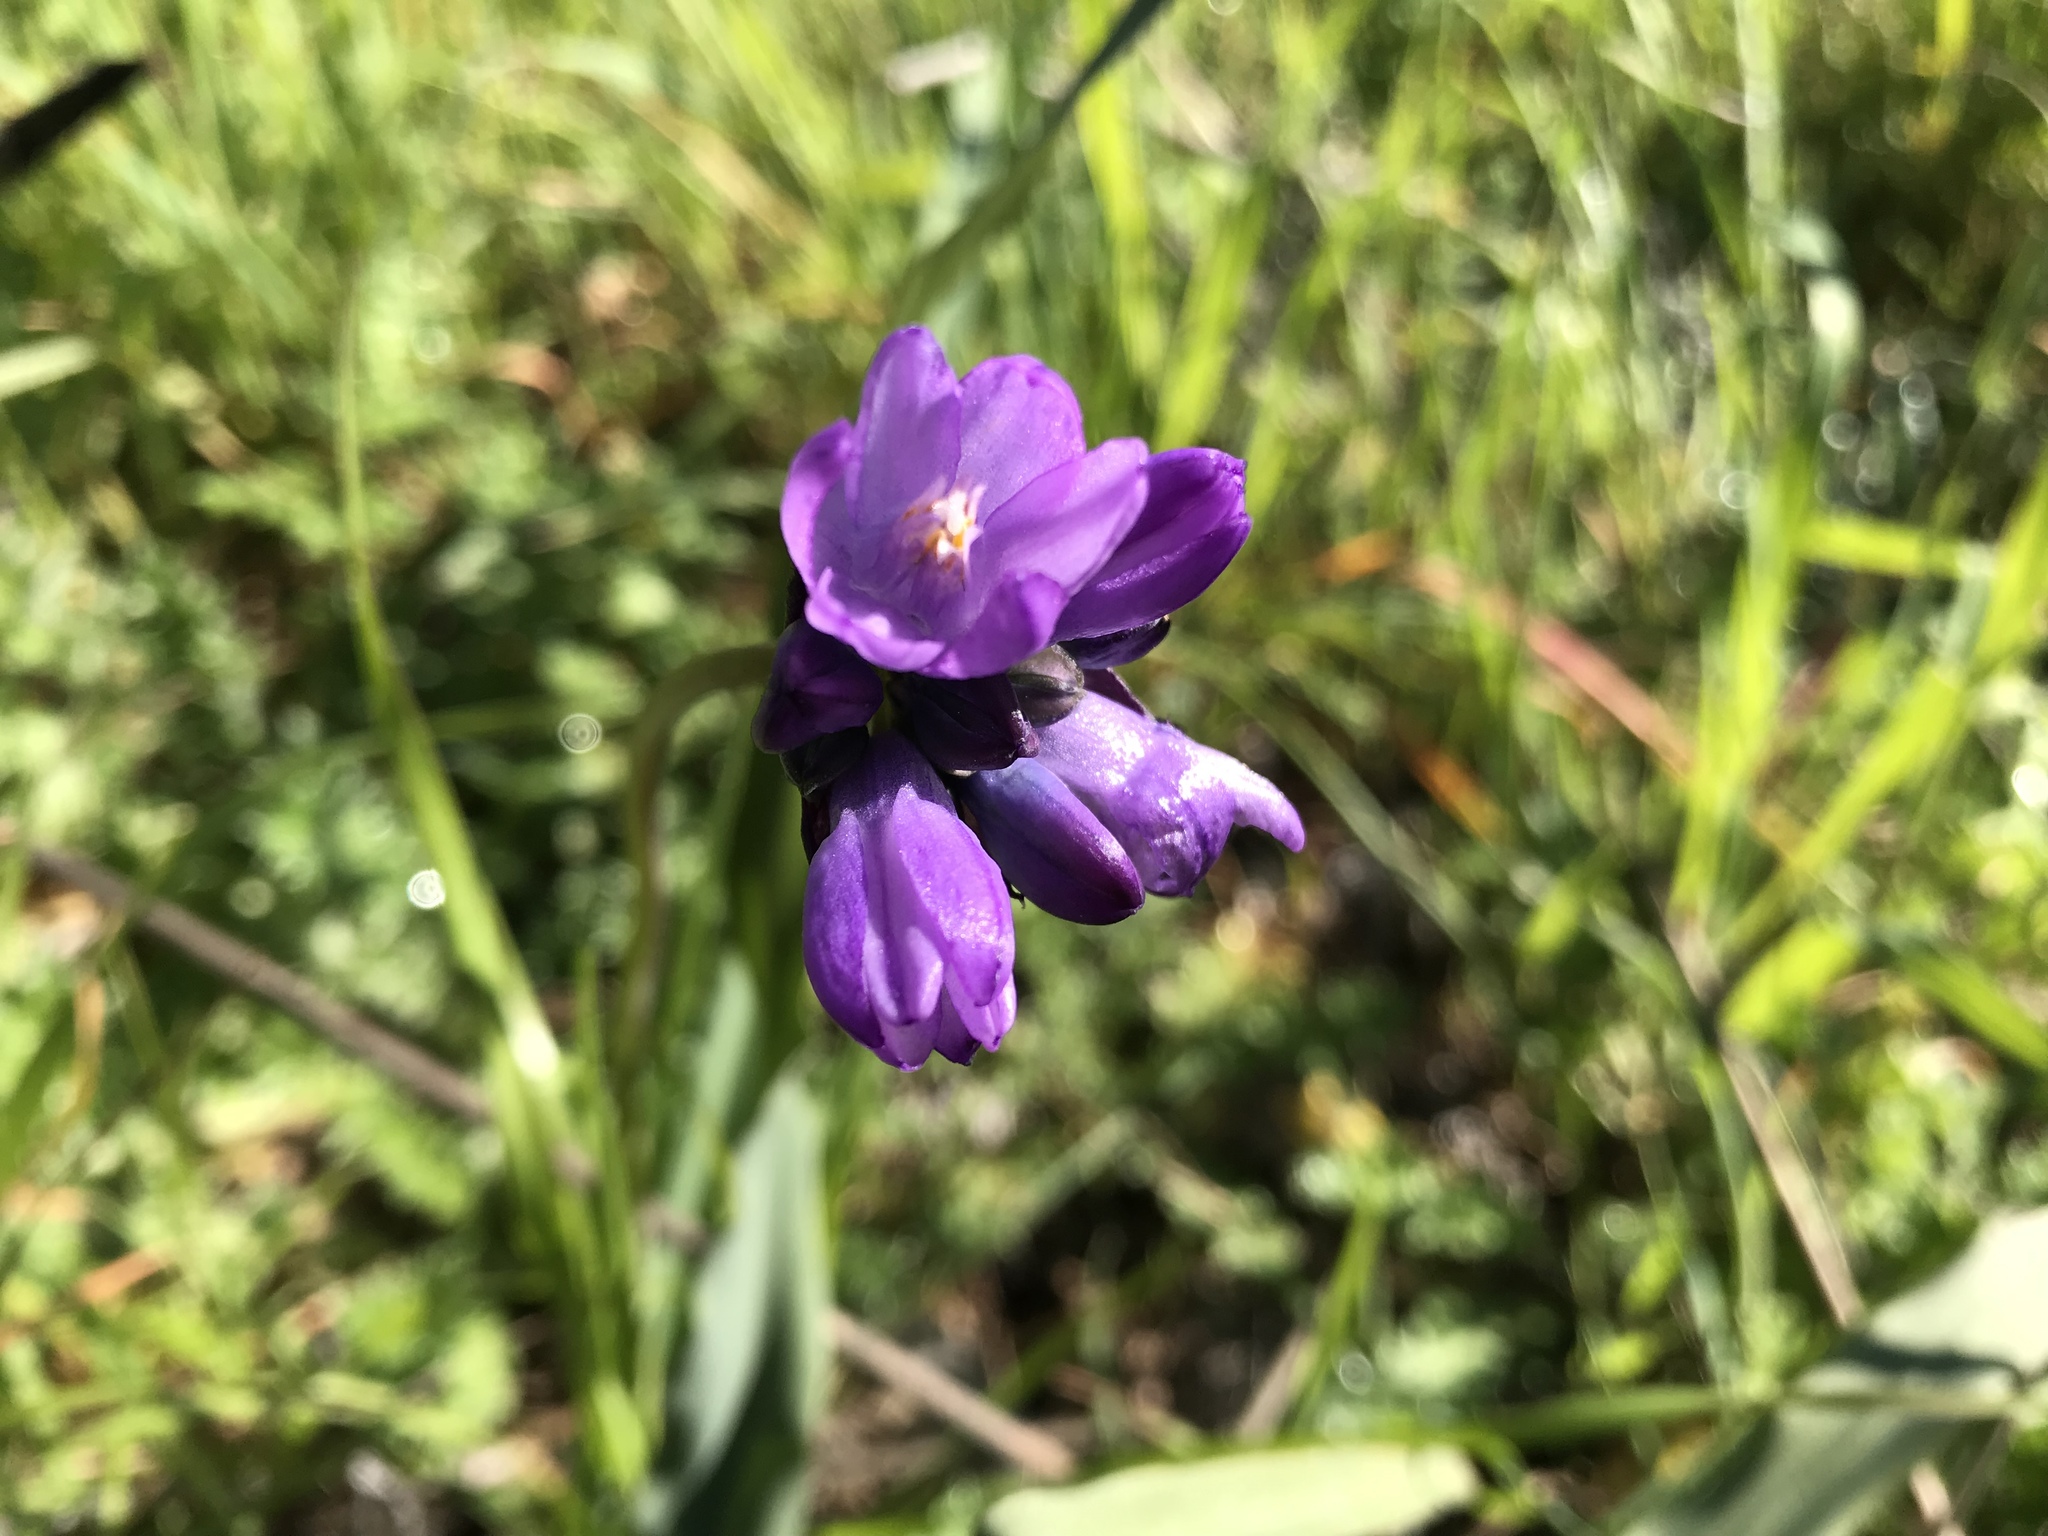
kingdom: Plantae
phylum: Tracheophyta
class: Liliopsida
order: Asparagales
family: Asparagaceae
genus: Dipterostemon
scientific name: Dipterostemon capitatus
